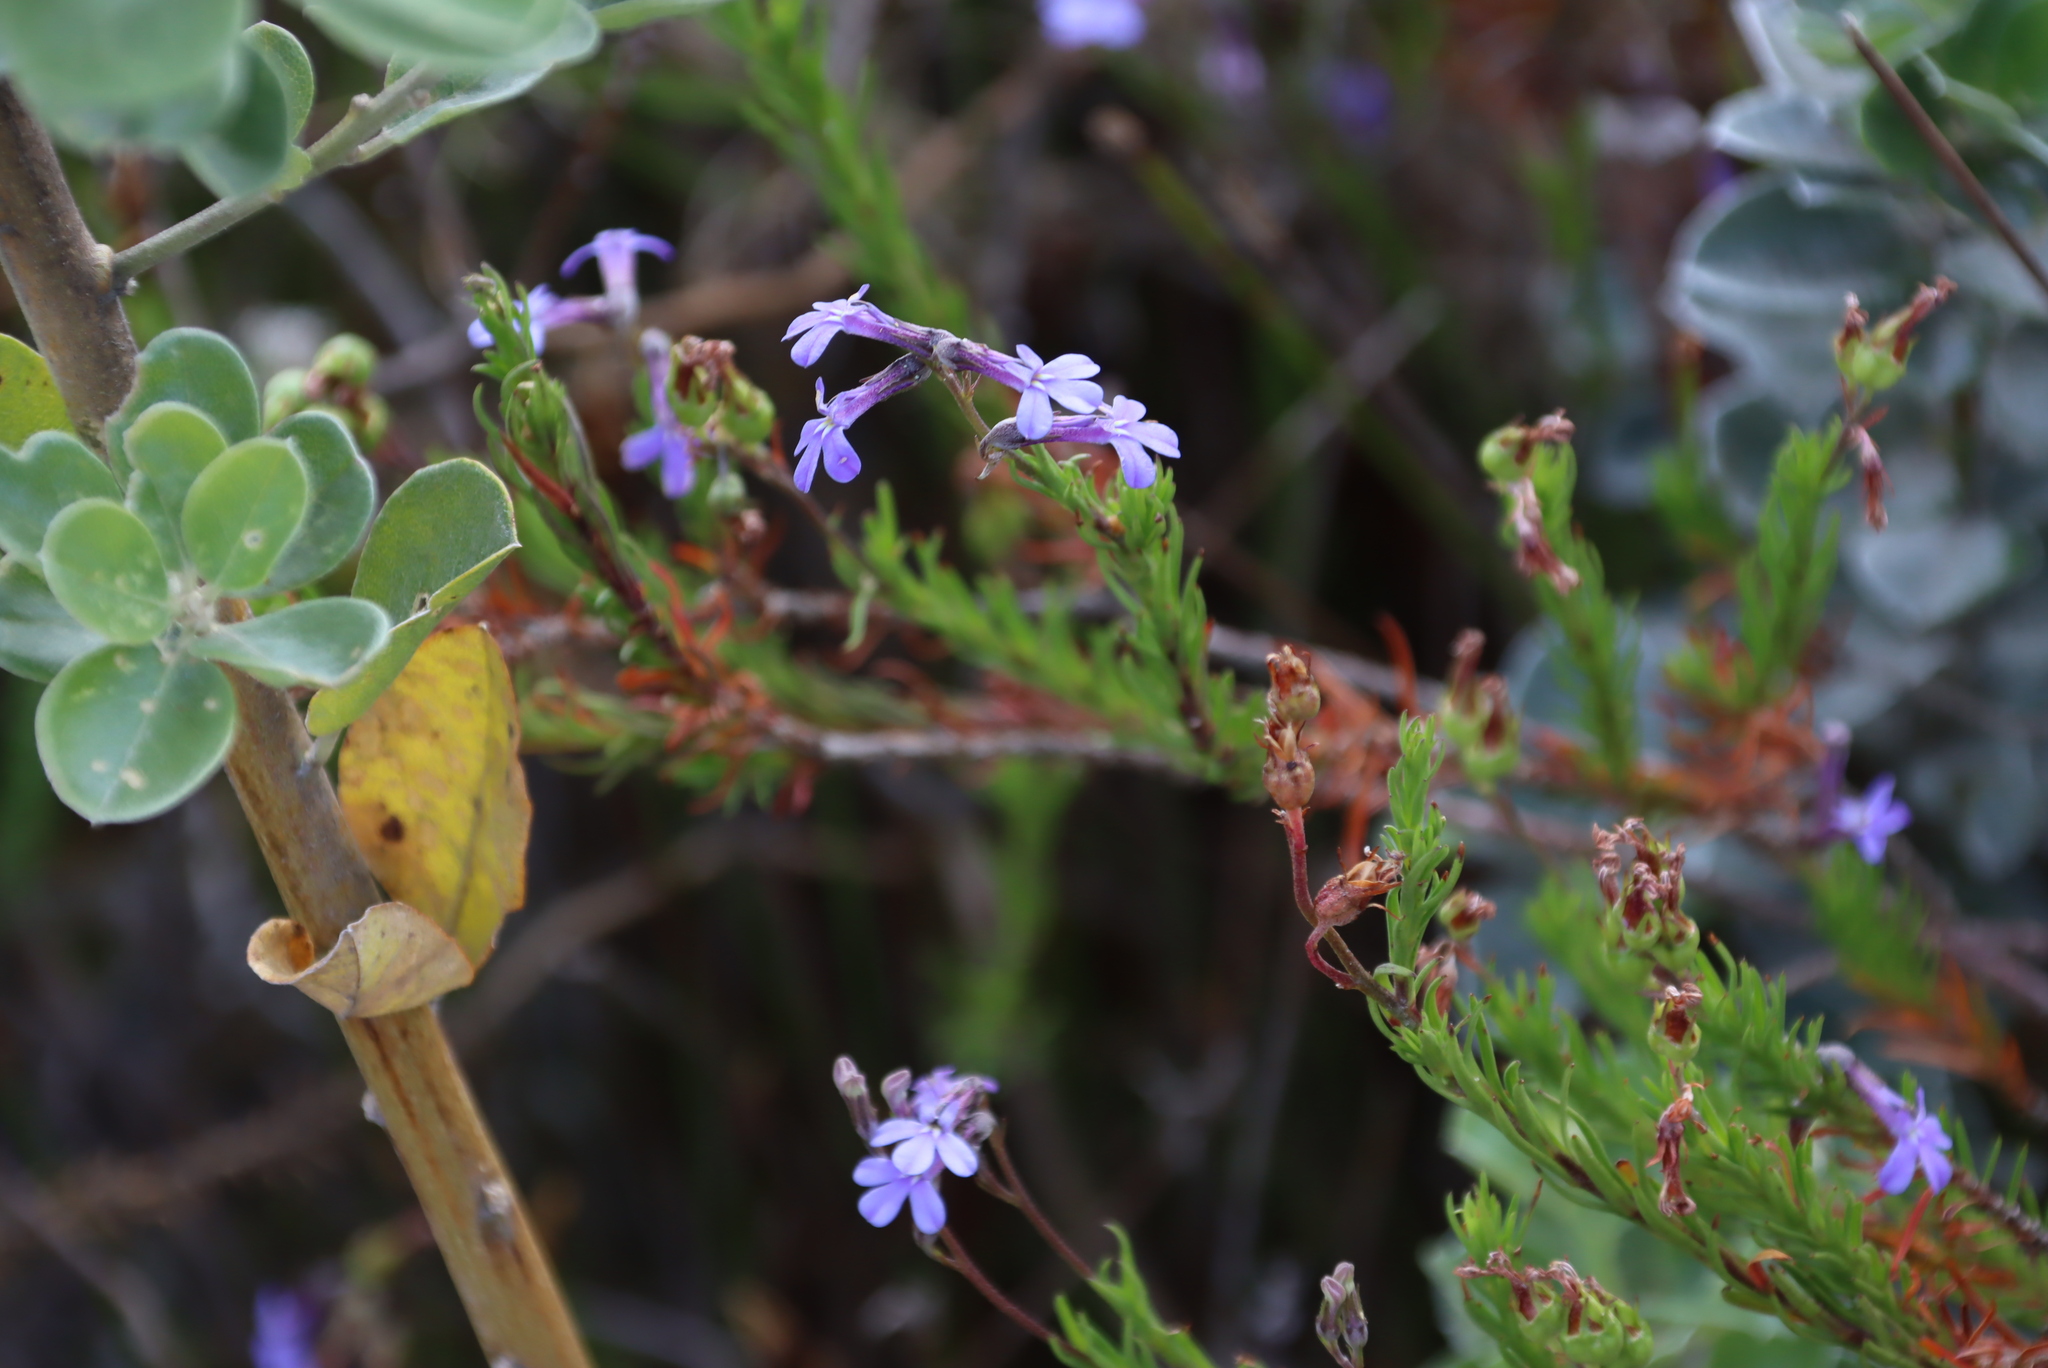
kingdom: Plantae
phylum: Tracheophyta
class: Magnoliopsida
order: Asterales
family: Campanulaceae
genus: Lobelia
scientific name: Lobelia pinifolia
